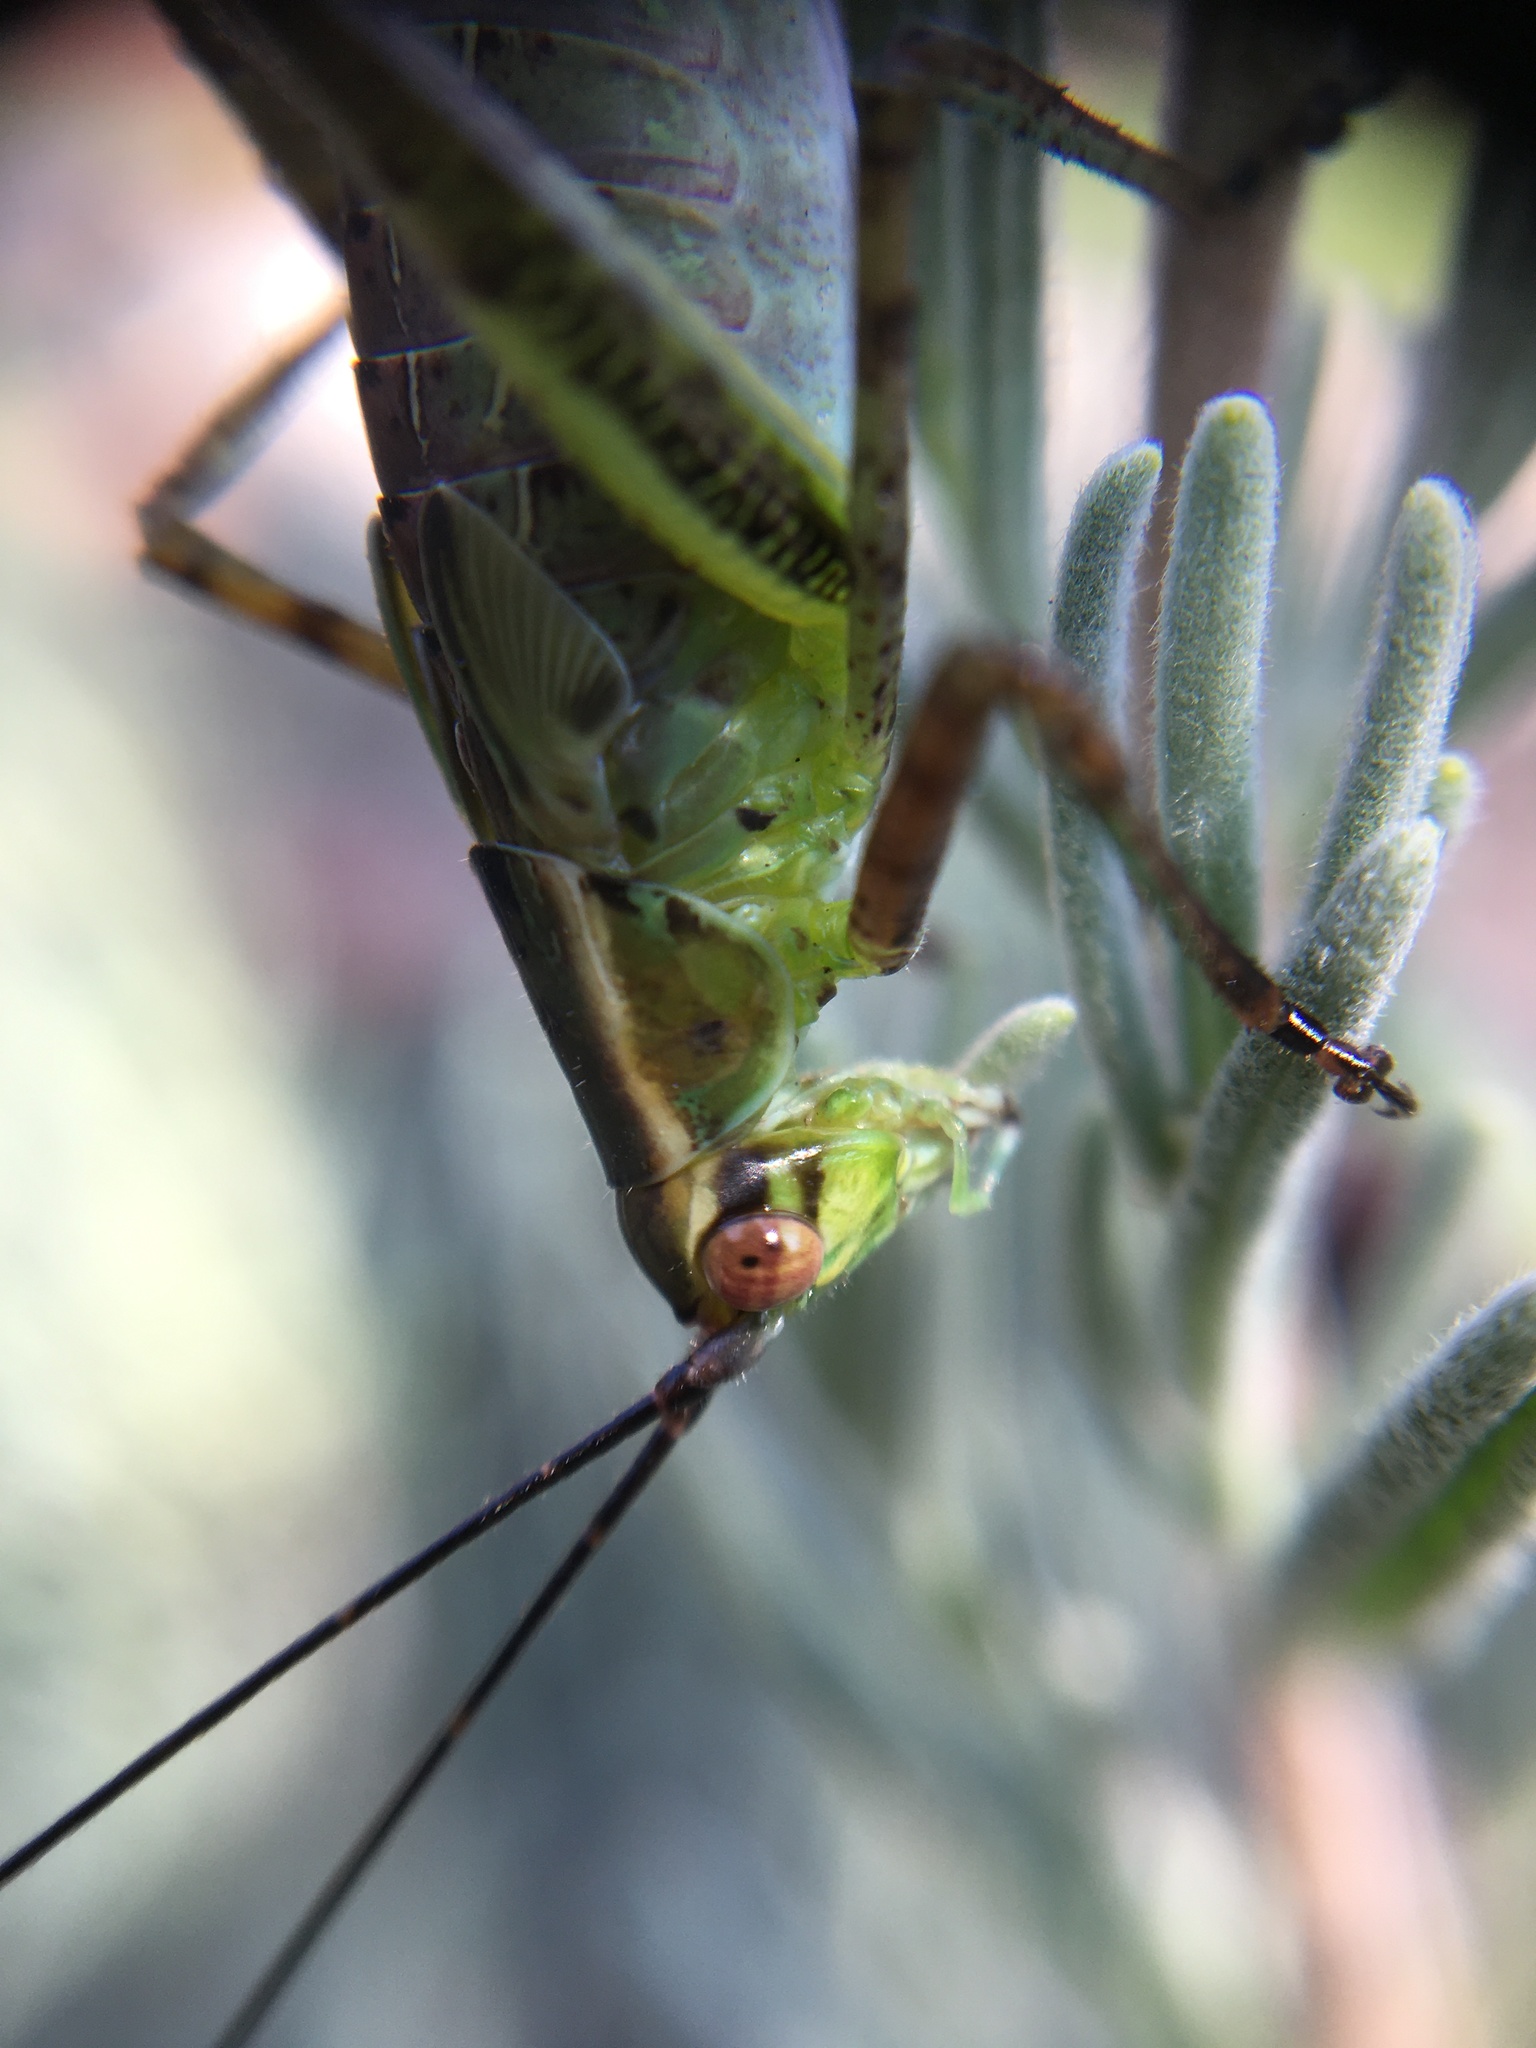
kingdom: Animalia
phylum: Arthropoda
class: Insecta
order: Orthoptera
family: Tettigoniidae
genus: Scudderia
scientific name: Scudderia
